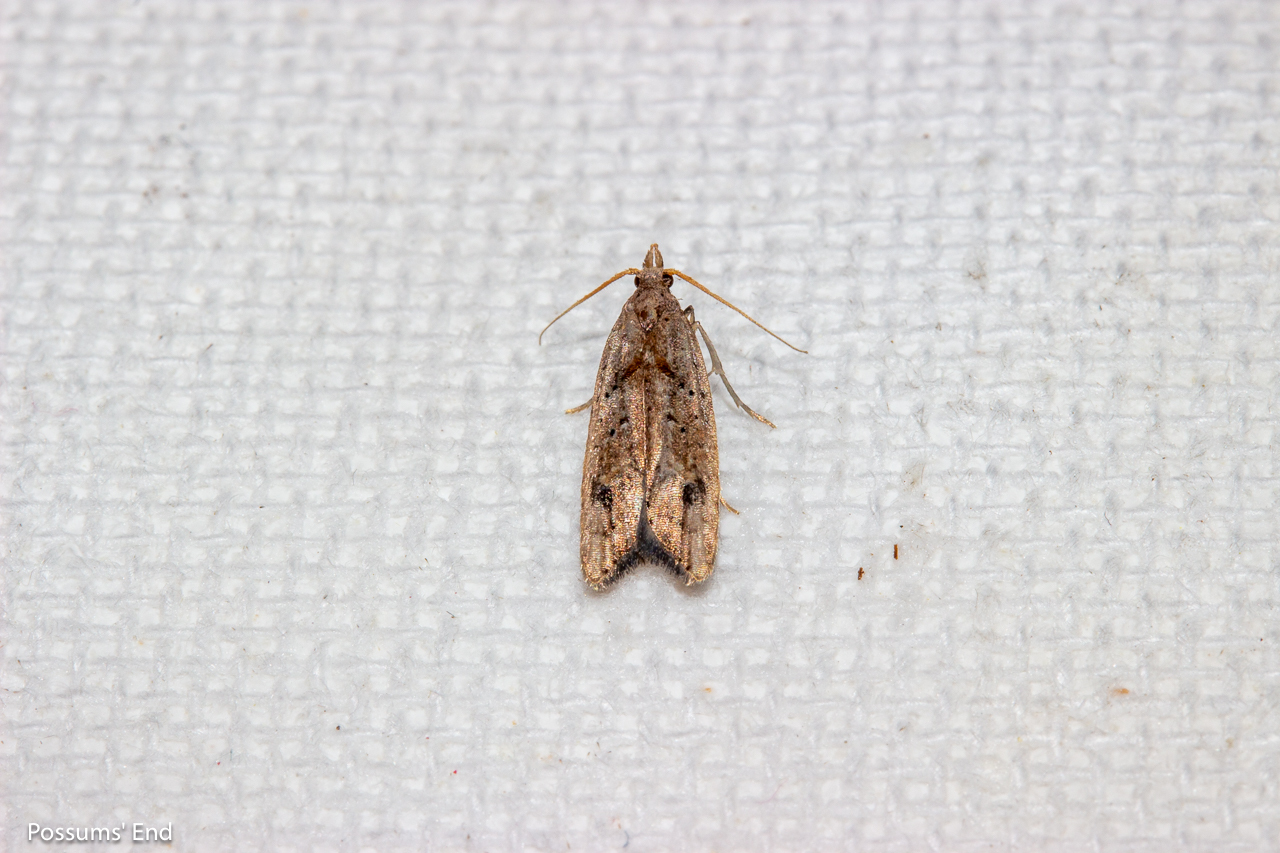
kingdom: Animalia
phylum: Arthropoda
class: Insecta
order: Lepidoptera
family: Carposinidae
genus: Carposina
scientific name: Carposina rubophaga
